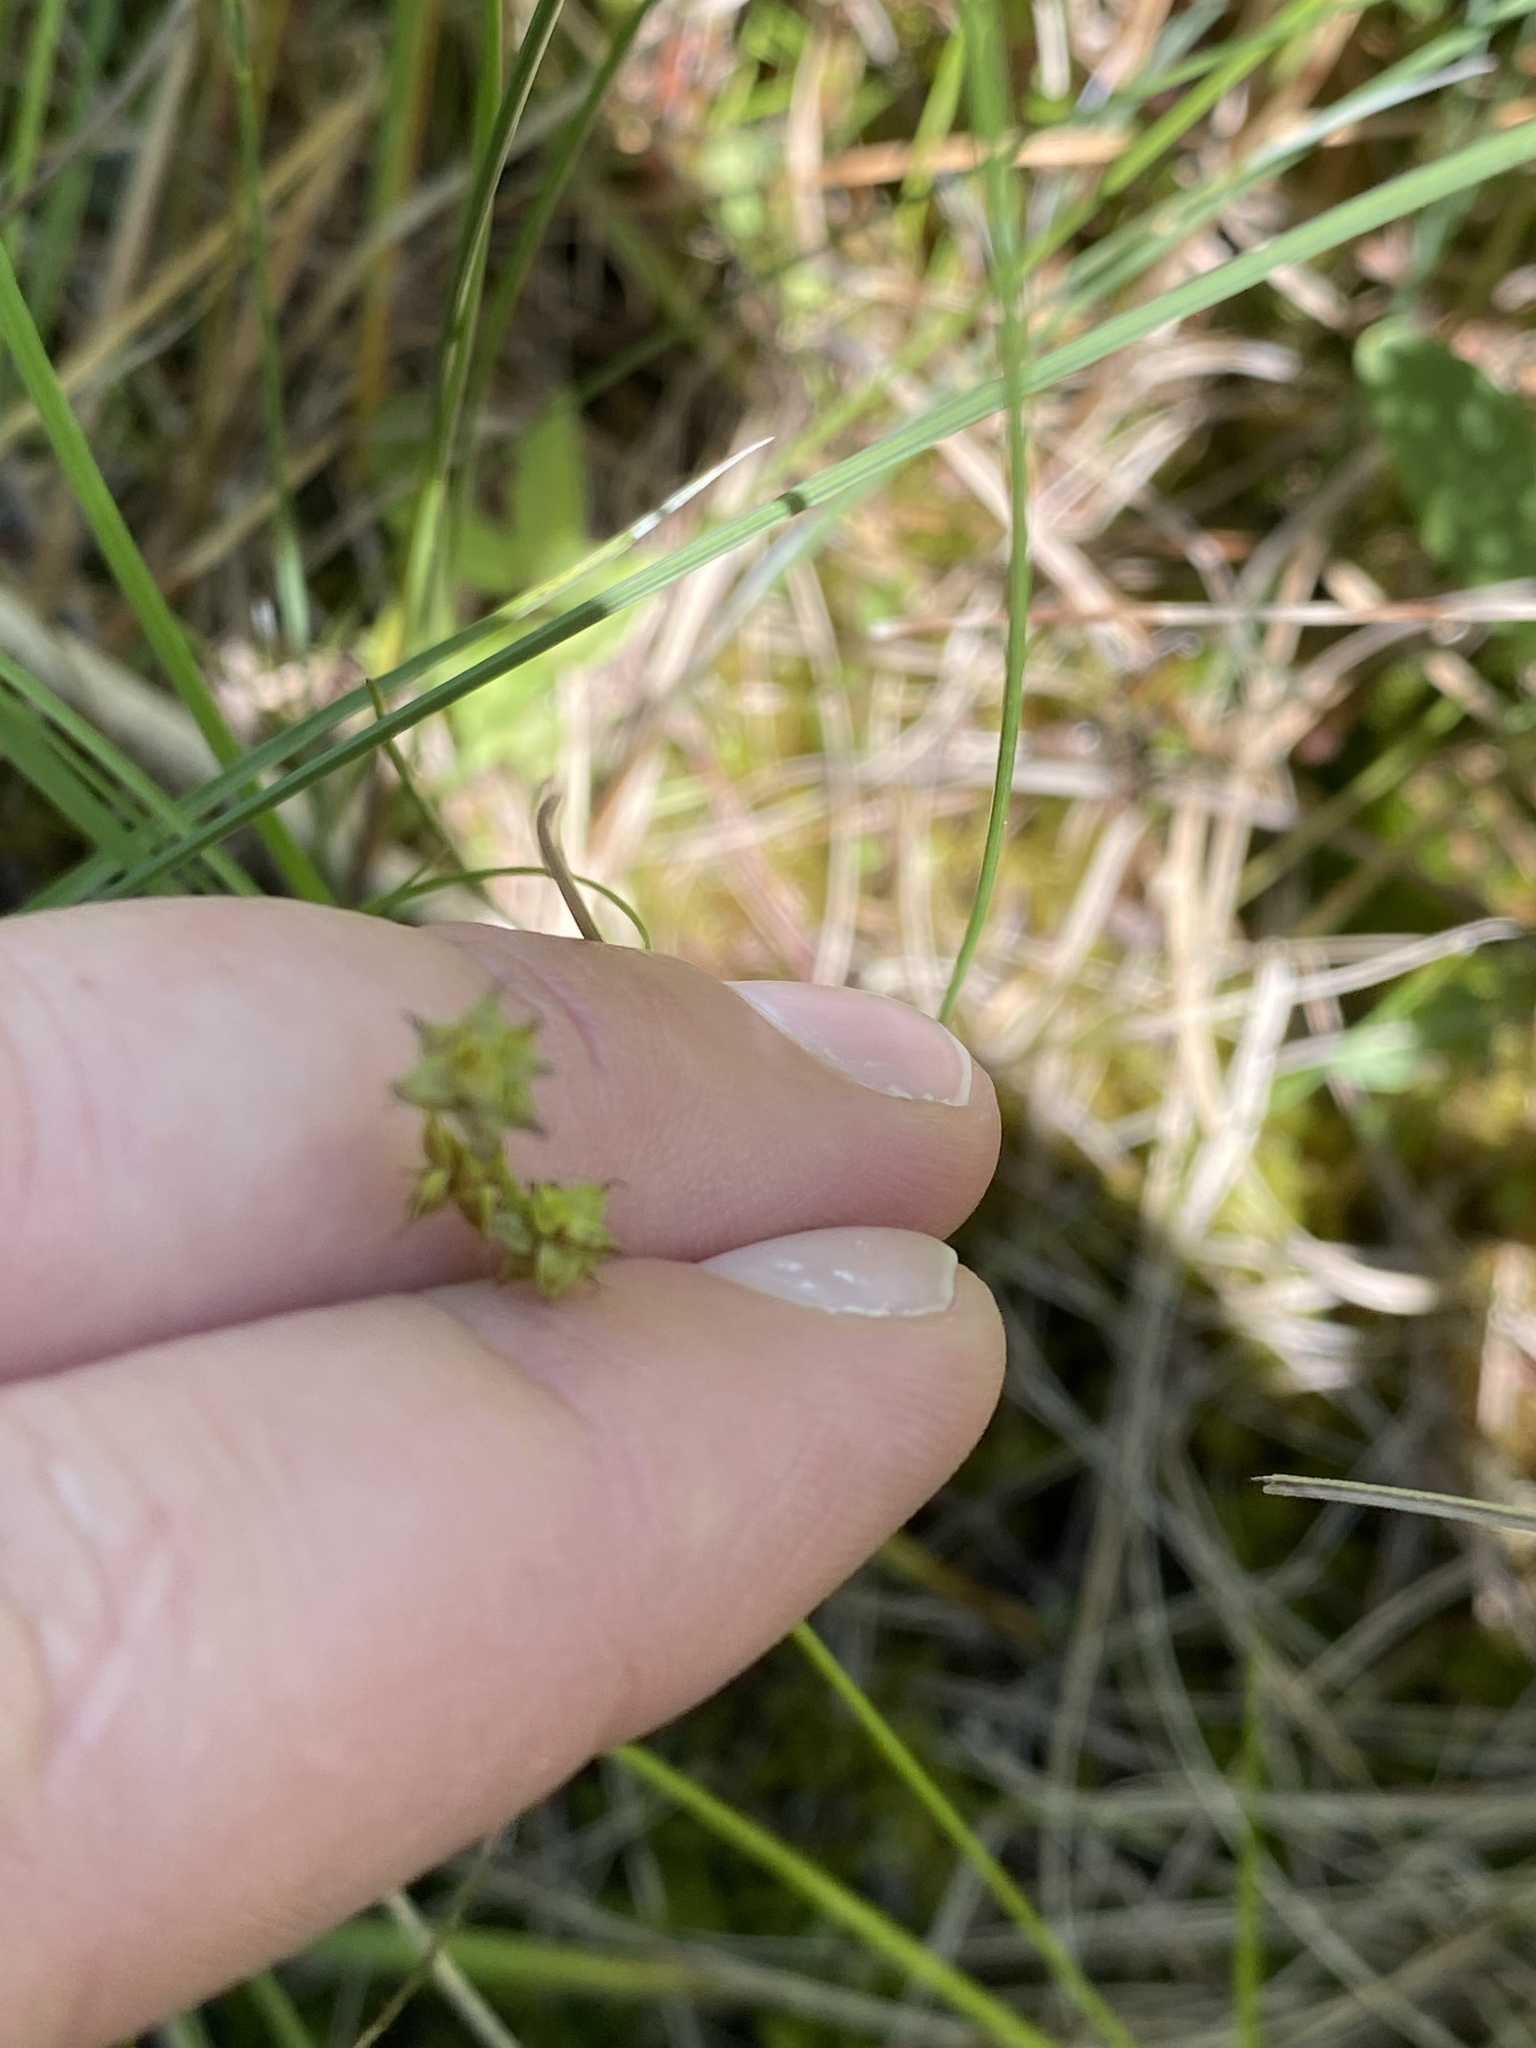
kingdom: Plantae
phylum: Tracheophyta
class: Liliopsida
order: Poales
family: Cyperaceae
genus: Carex
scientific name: Carex interior
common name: Inland sedge
